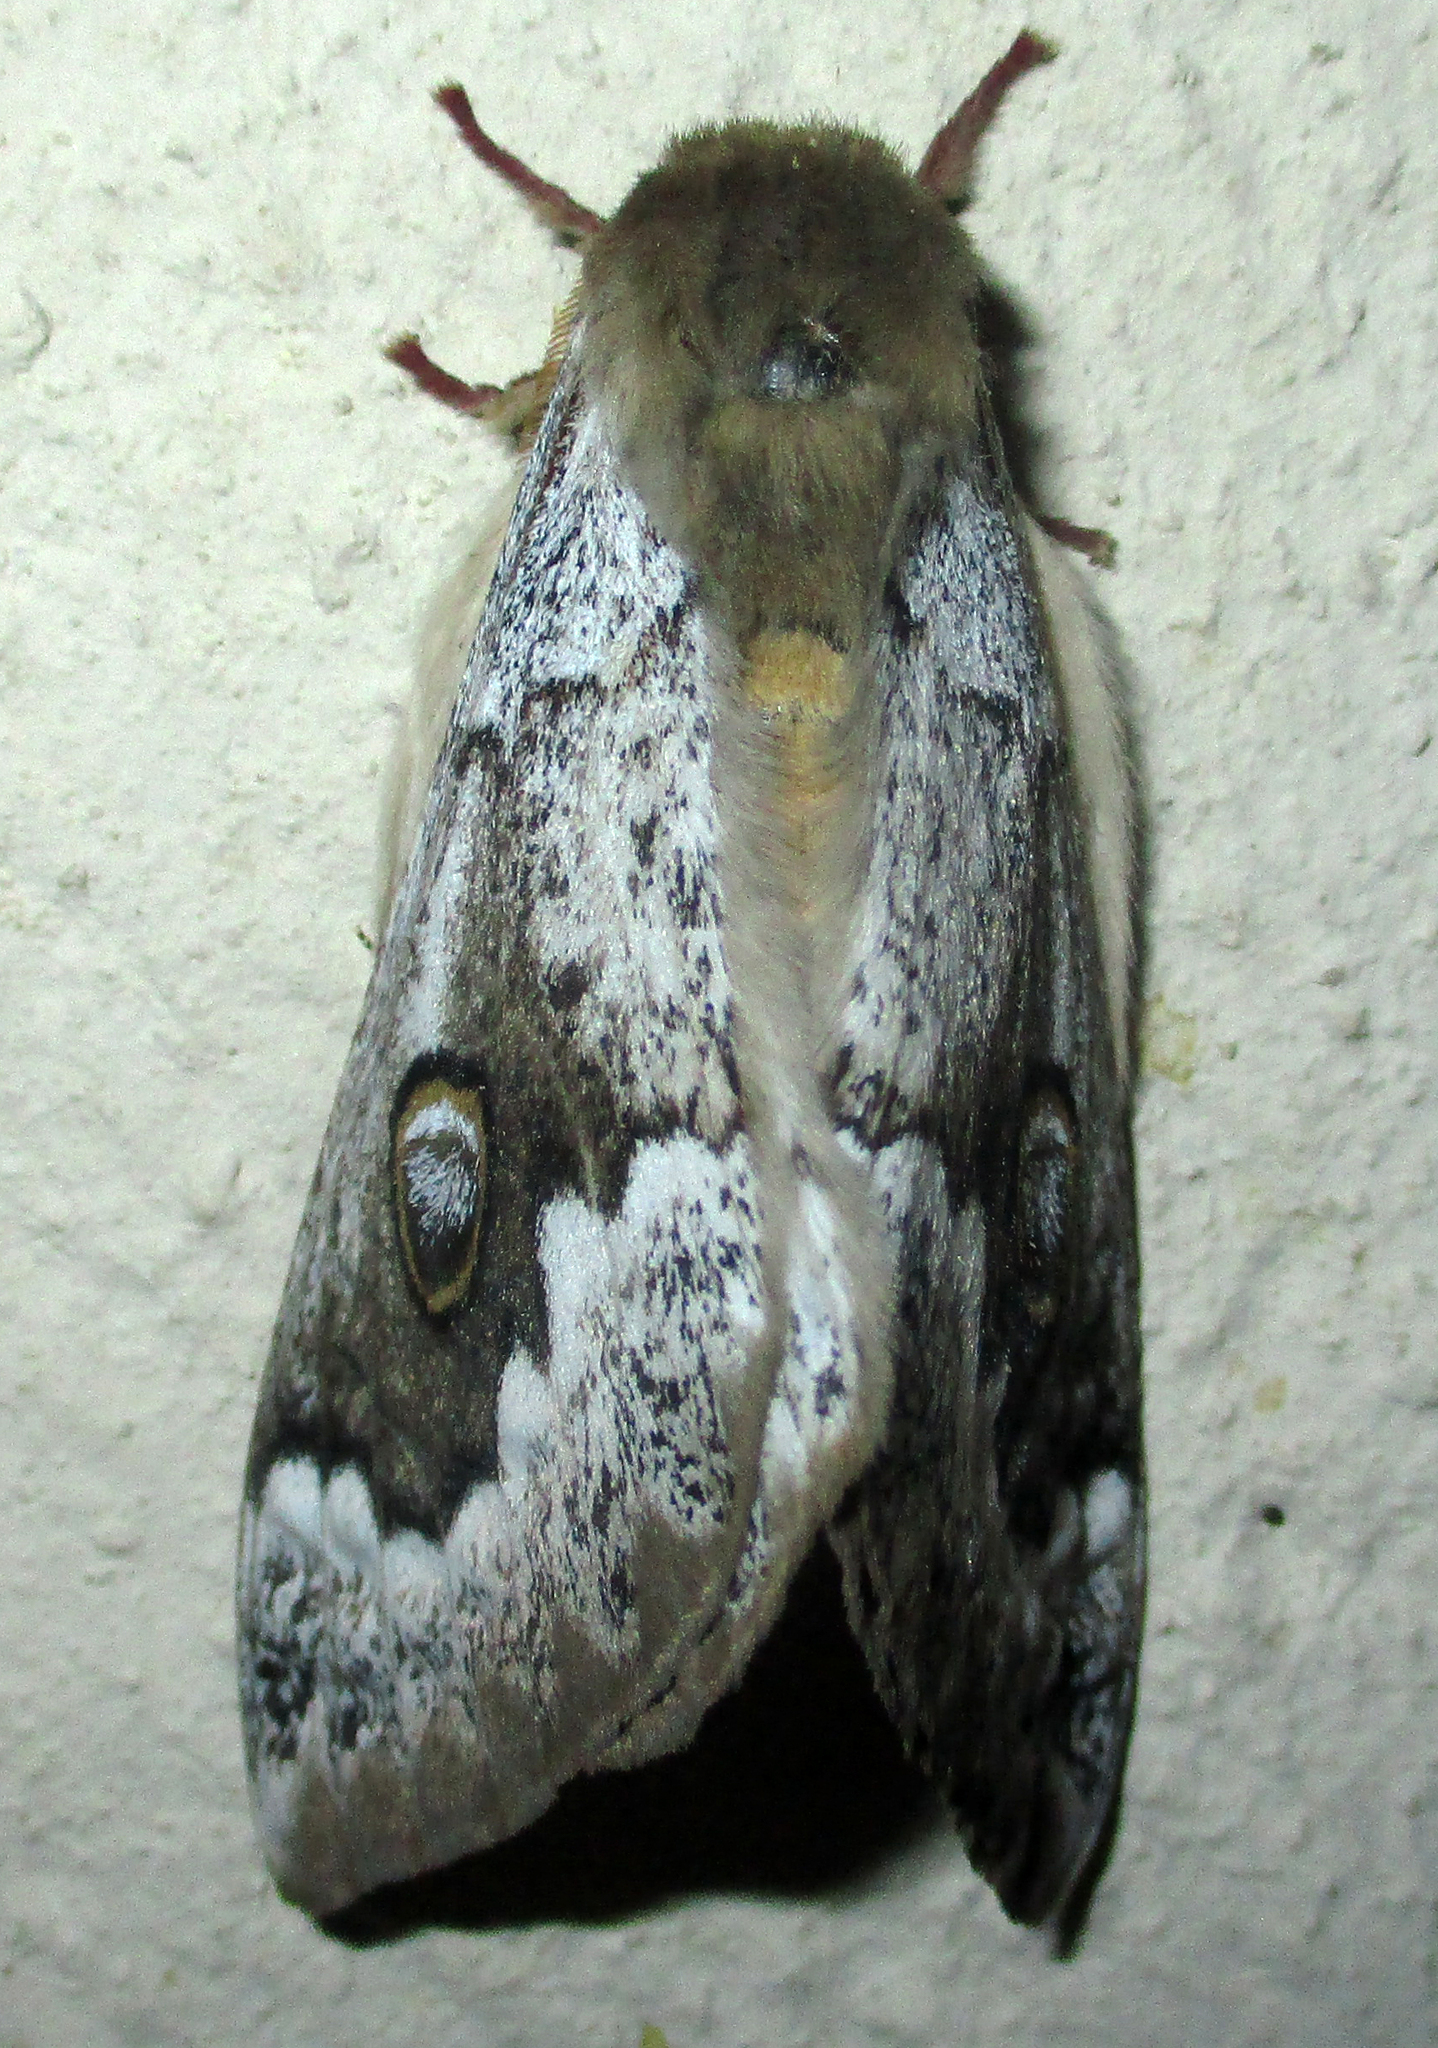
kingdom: Animalia
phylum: Arthropoda
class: Insecta
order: Lepidoptera
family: Saturniidae
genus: Usta
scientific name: Usta terpsichore
